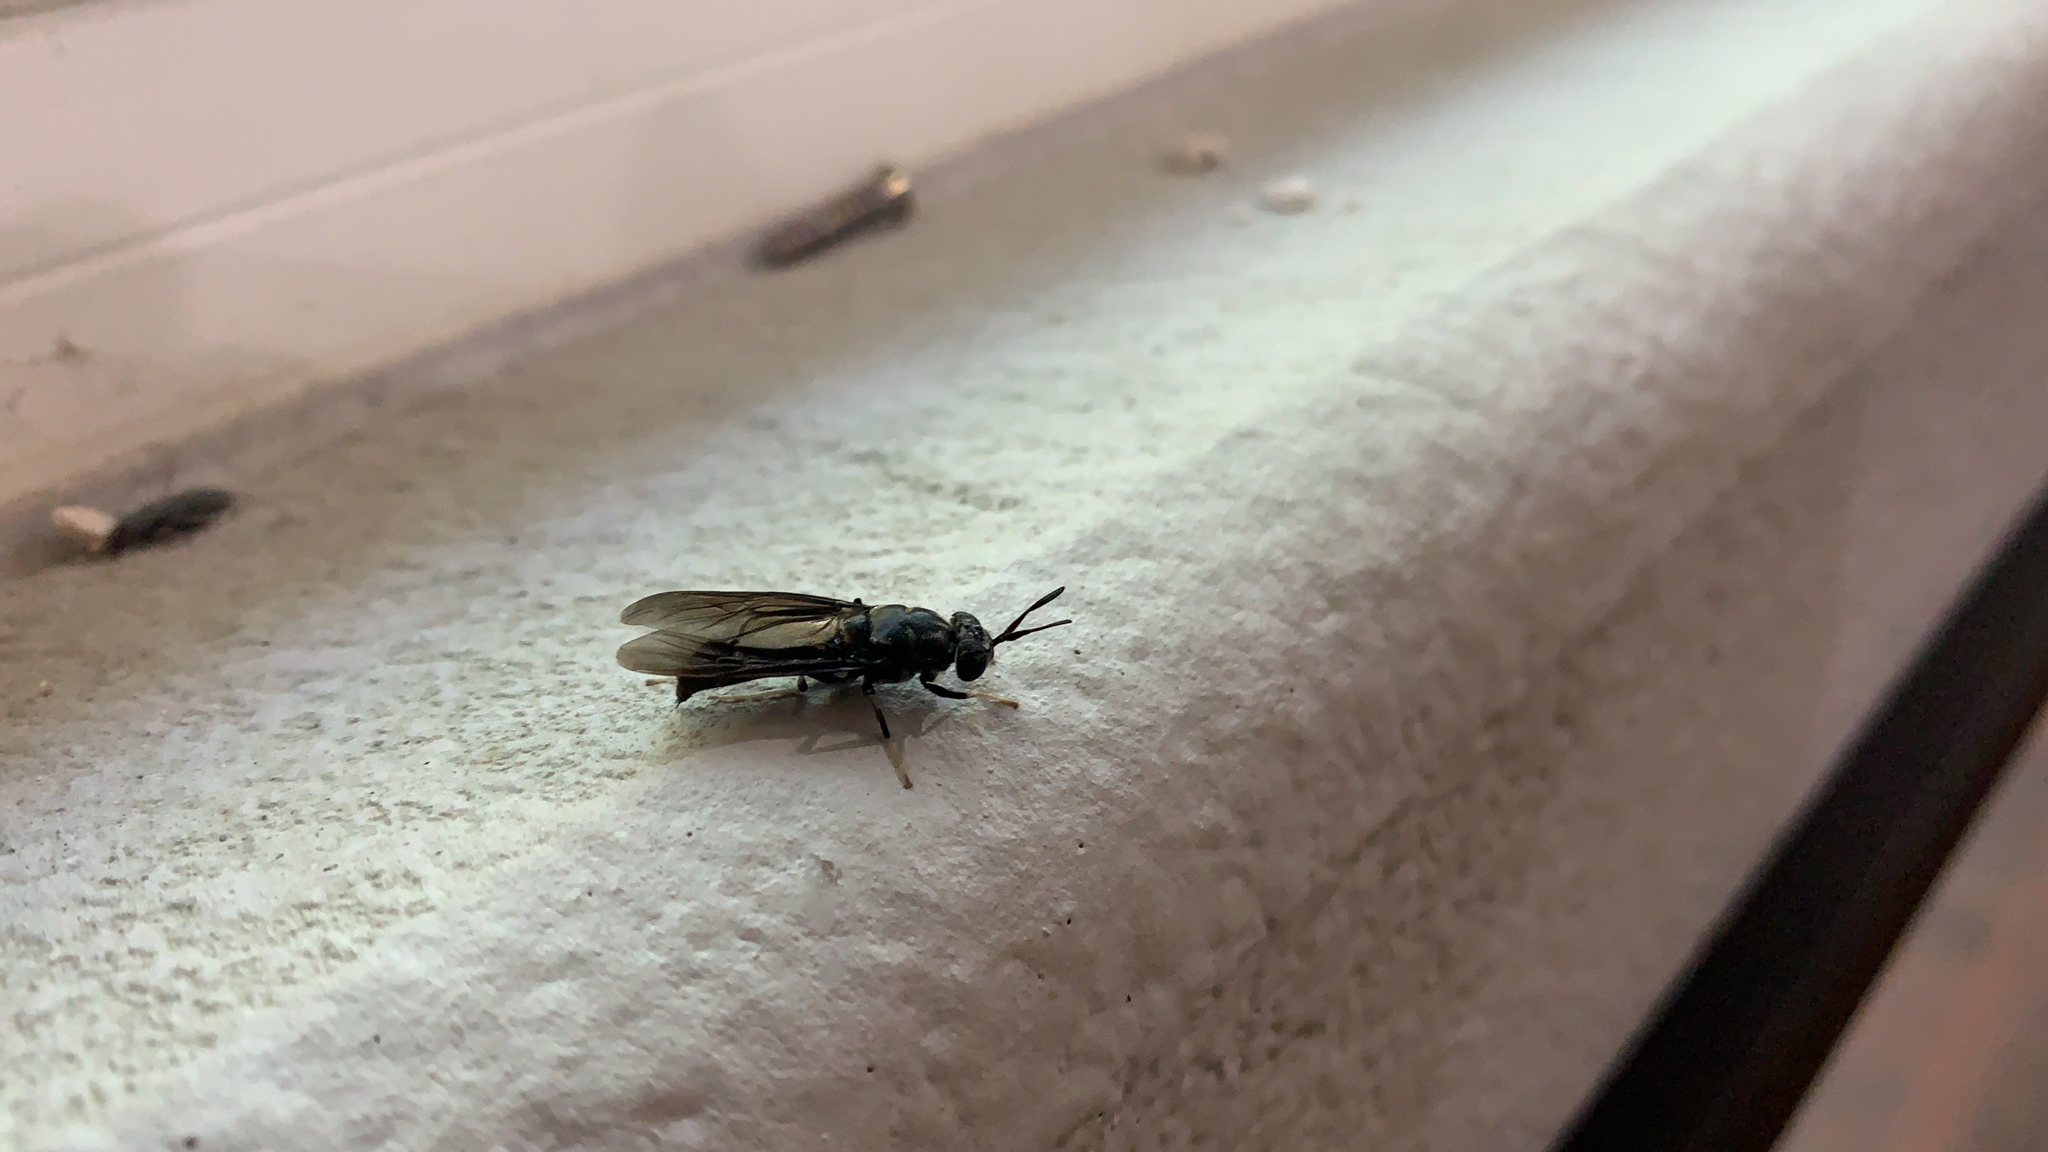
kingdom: Animalia
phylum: Arthropoda
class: Insecta
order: Diptera
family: Stratiomyidae
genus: Hermetia
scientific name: Hermetia illucens
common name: Black soldier fly
